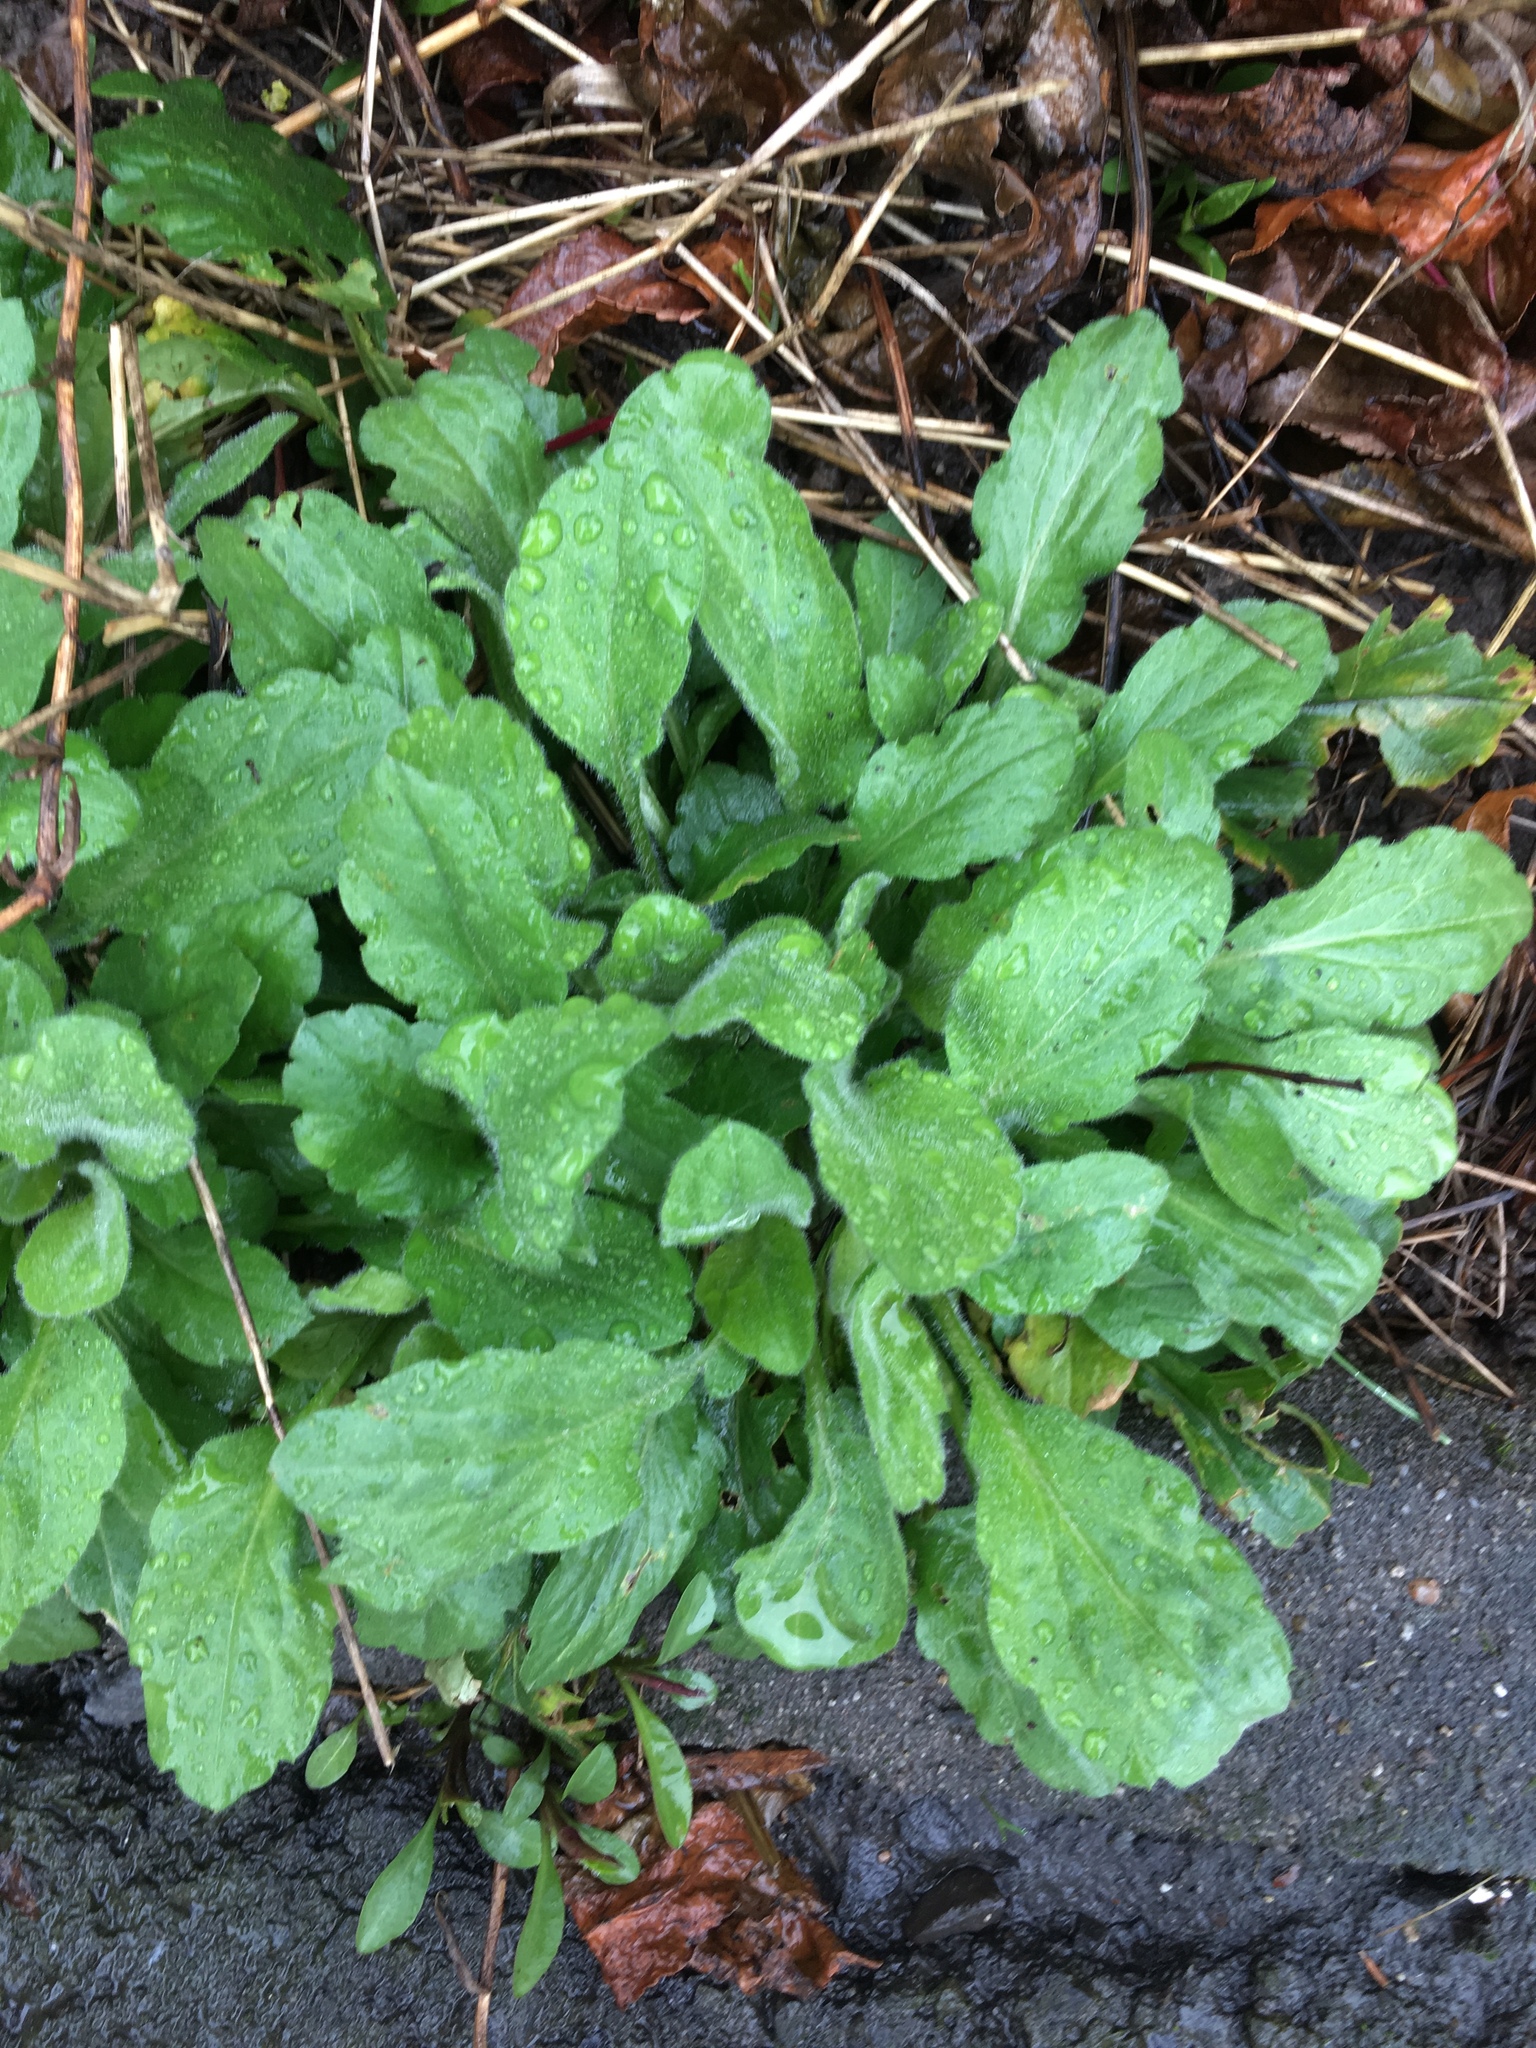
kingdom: Plantae
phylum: Tracheophyta
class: Magnoliopsida
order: Asterales
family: Asteraceae
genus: Erigeron
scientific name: Erigeron annuus
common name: Tall fleabane
